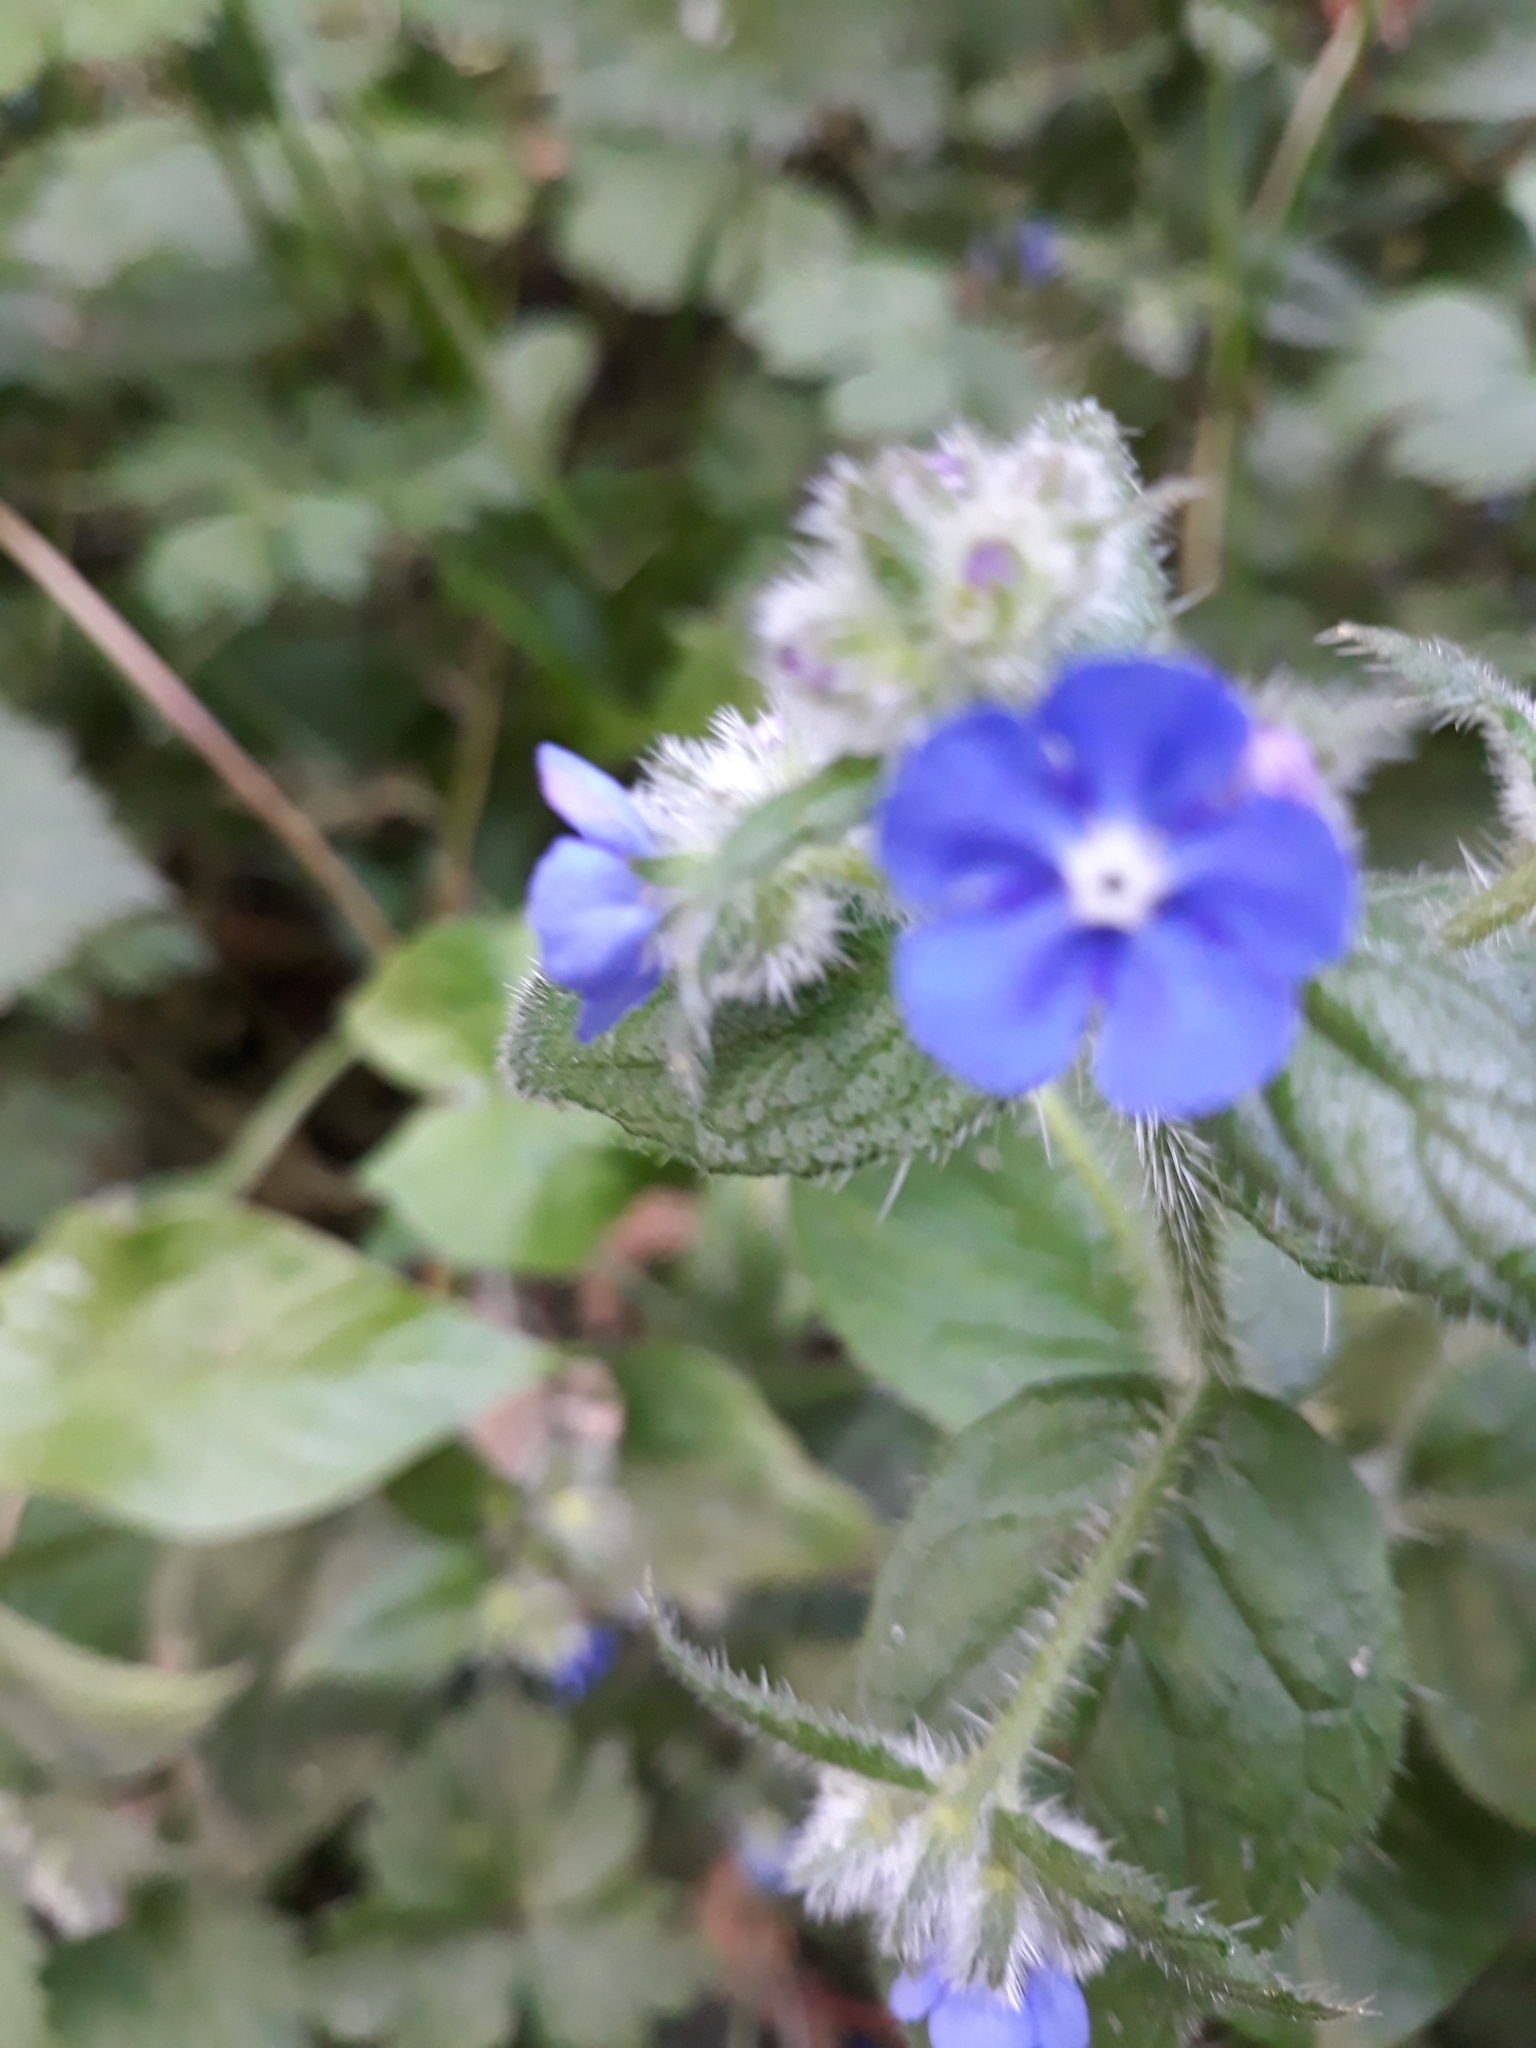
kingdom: Plantae
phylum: Tracheophyta
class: Magnoliopsida
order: Boraginales
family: Boraginaceae
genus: Pentaglottis
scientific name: Pentaglottis sempervirens
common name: Green alkanet
